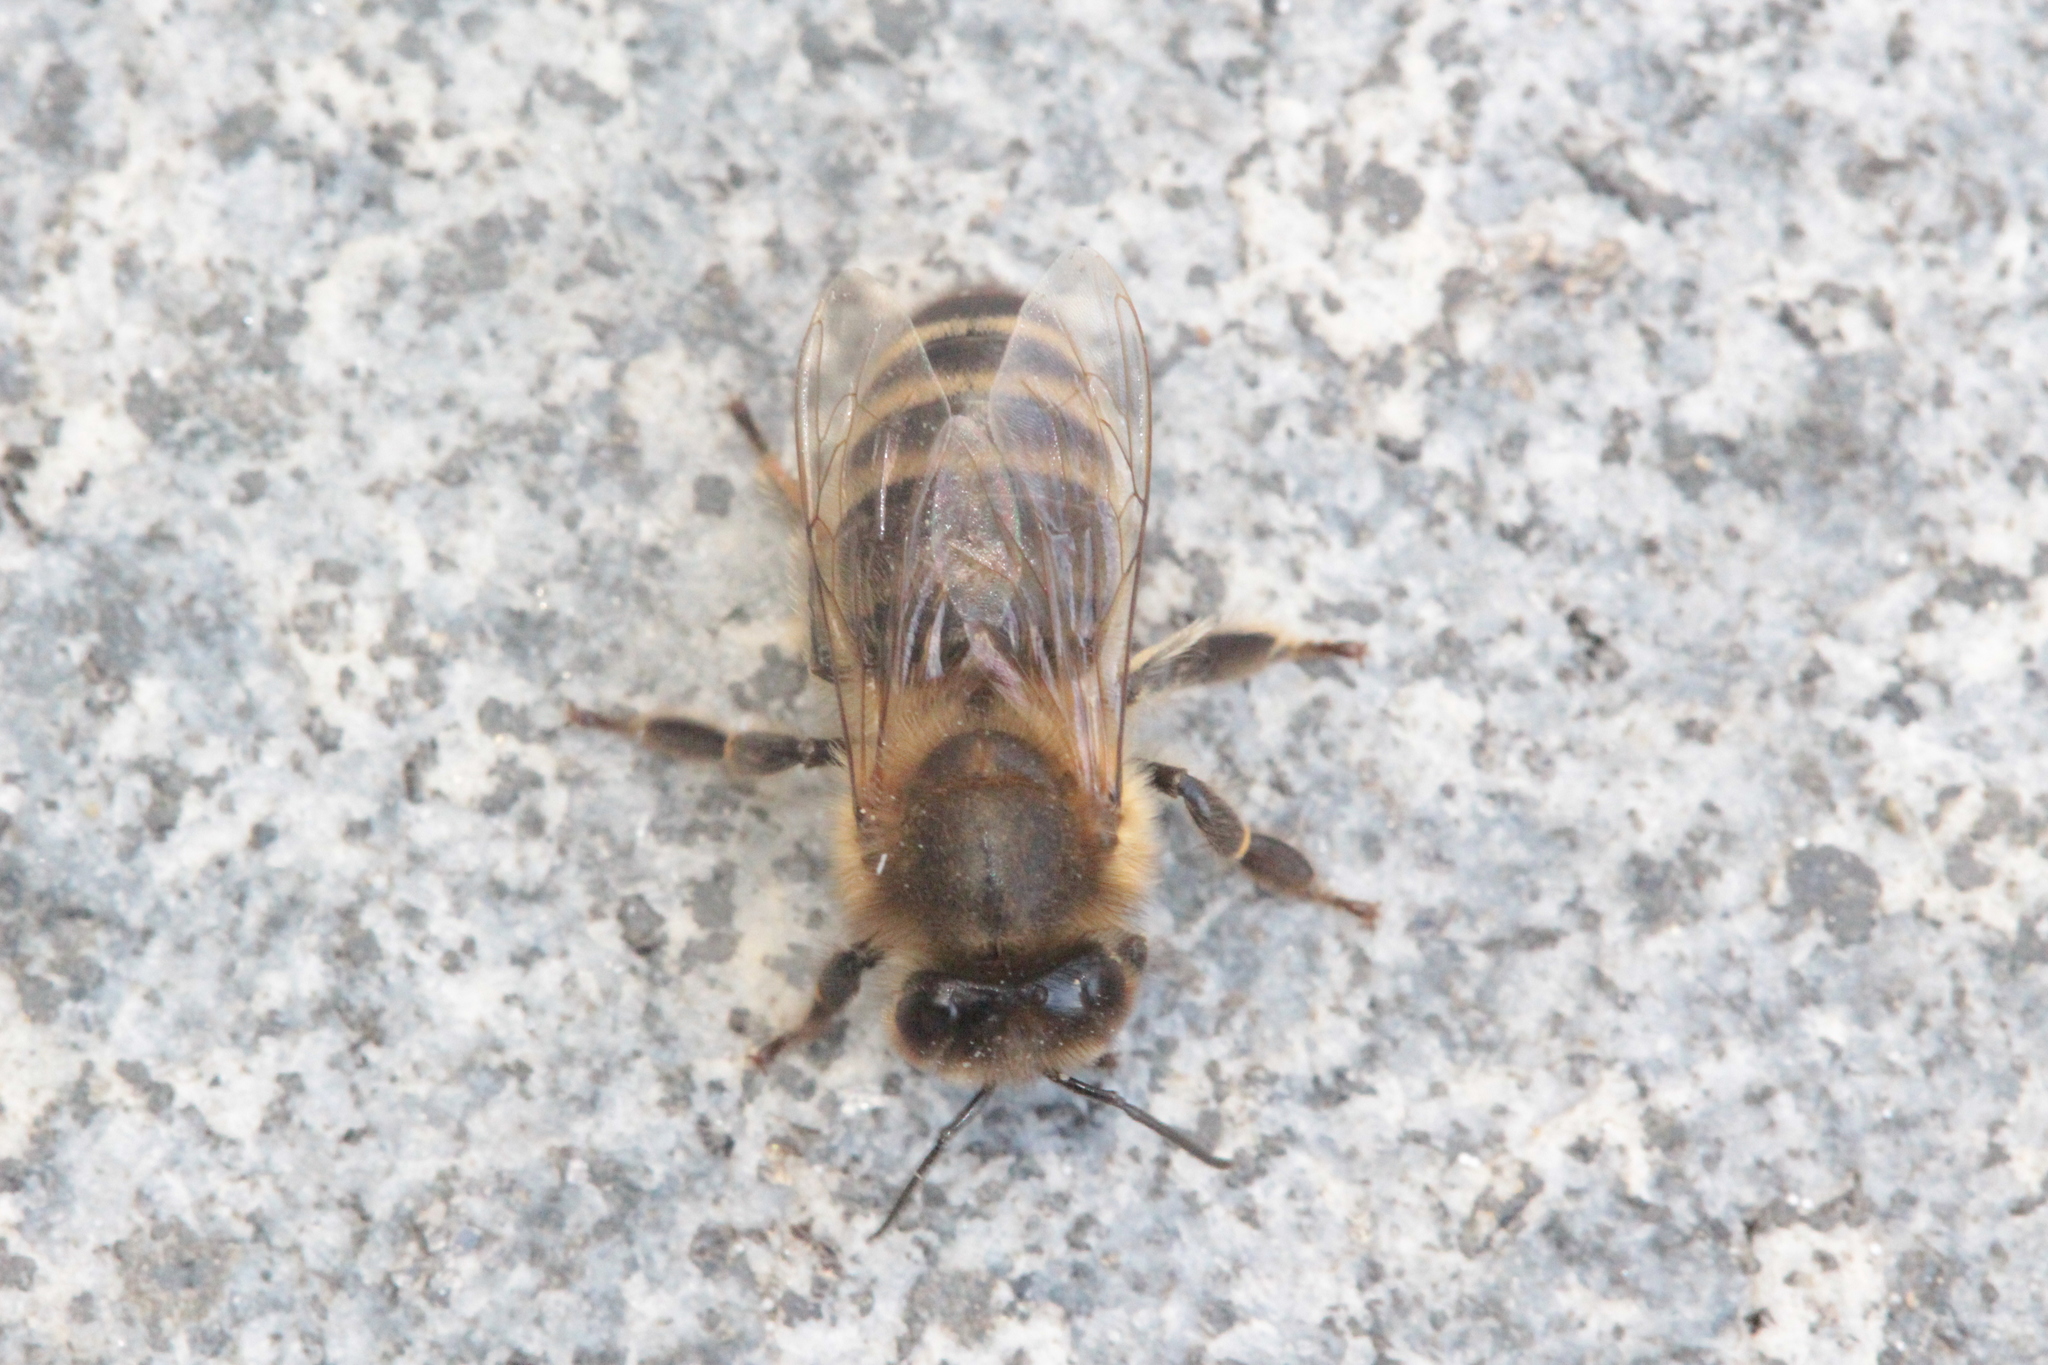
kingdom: Animalia
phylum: Arthropoda
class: Insecta
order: Hymenoptera
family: Apidae
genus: Apis
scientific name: Apis mellifera
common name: Honey bee
